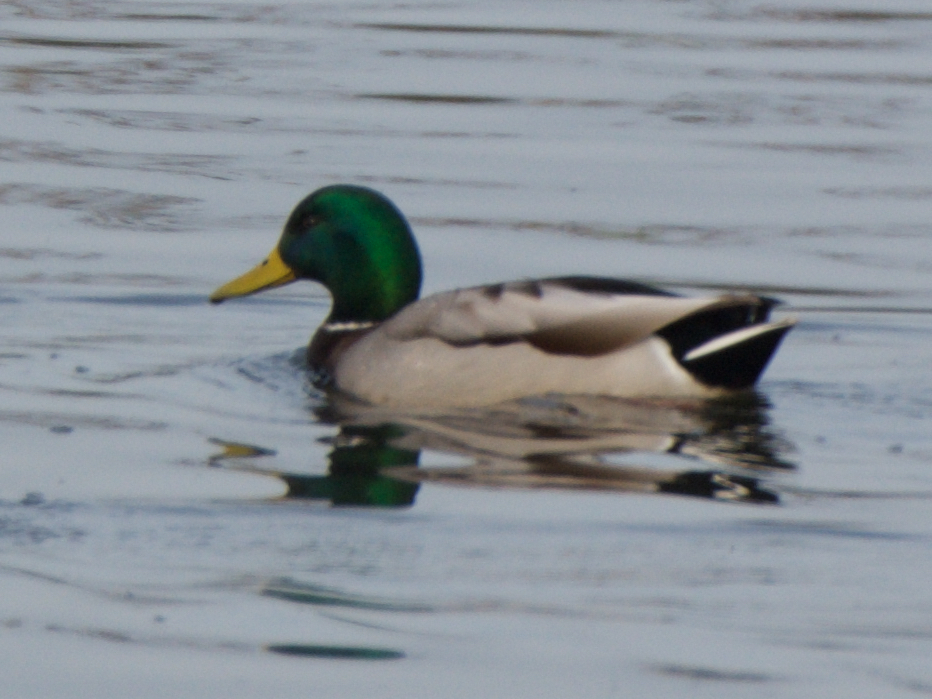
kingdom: Animalia
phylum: Chordata
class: Aves
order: Anseriformes
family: Anatidae
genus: Anas
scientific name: Anas platyrhynchos
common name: Mallard
